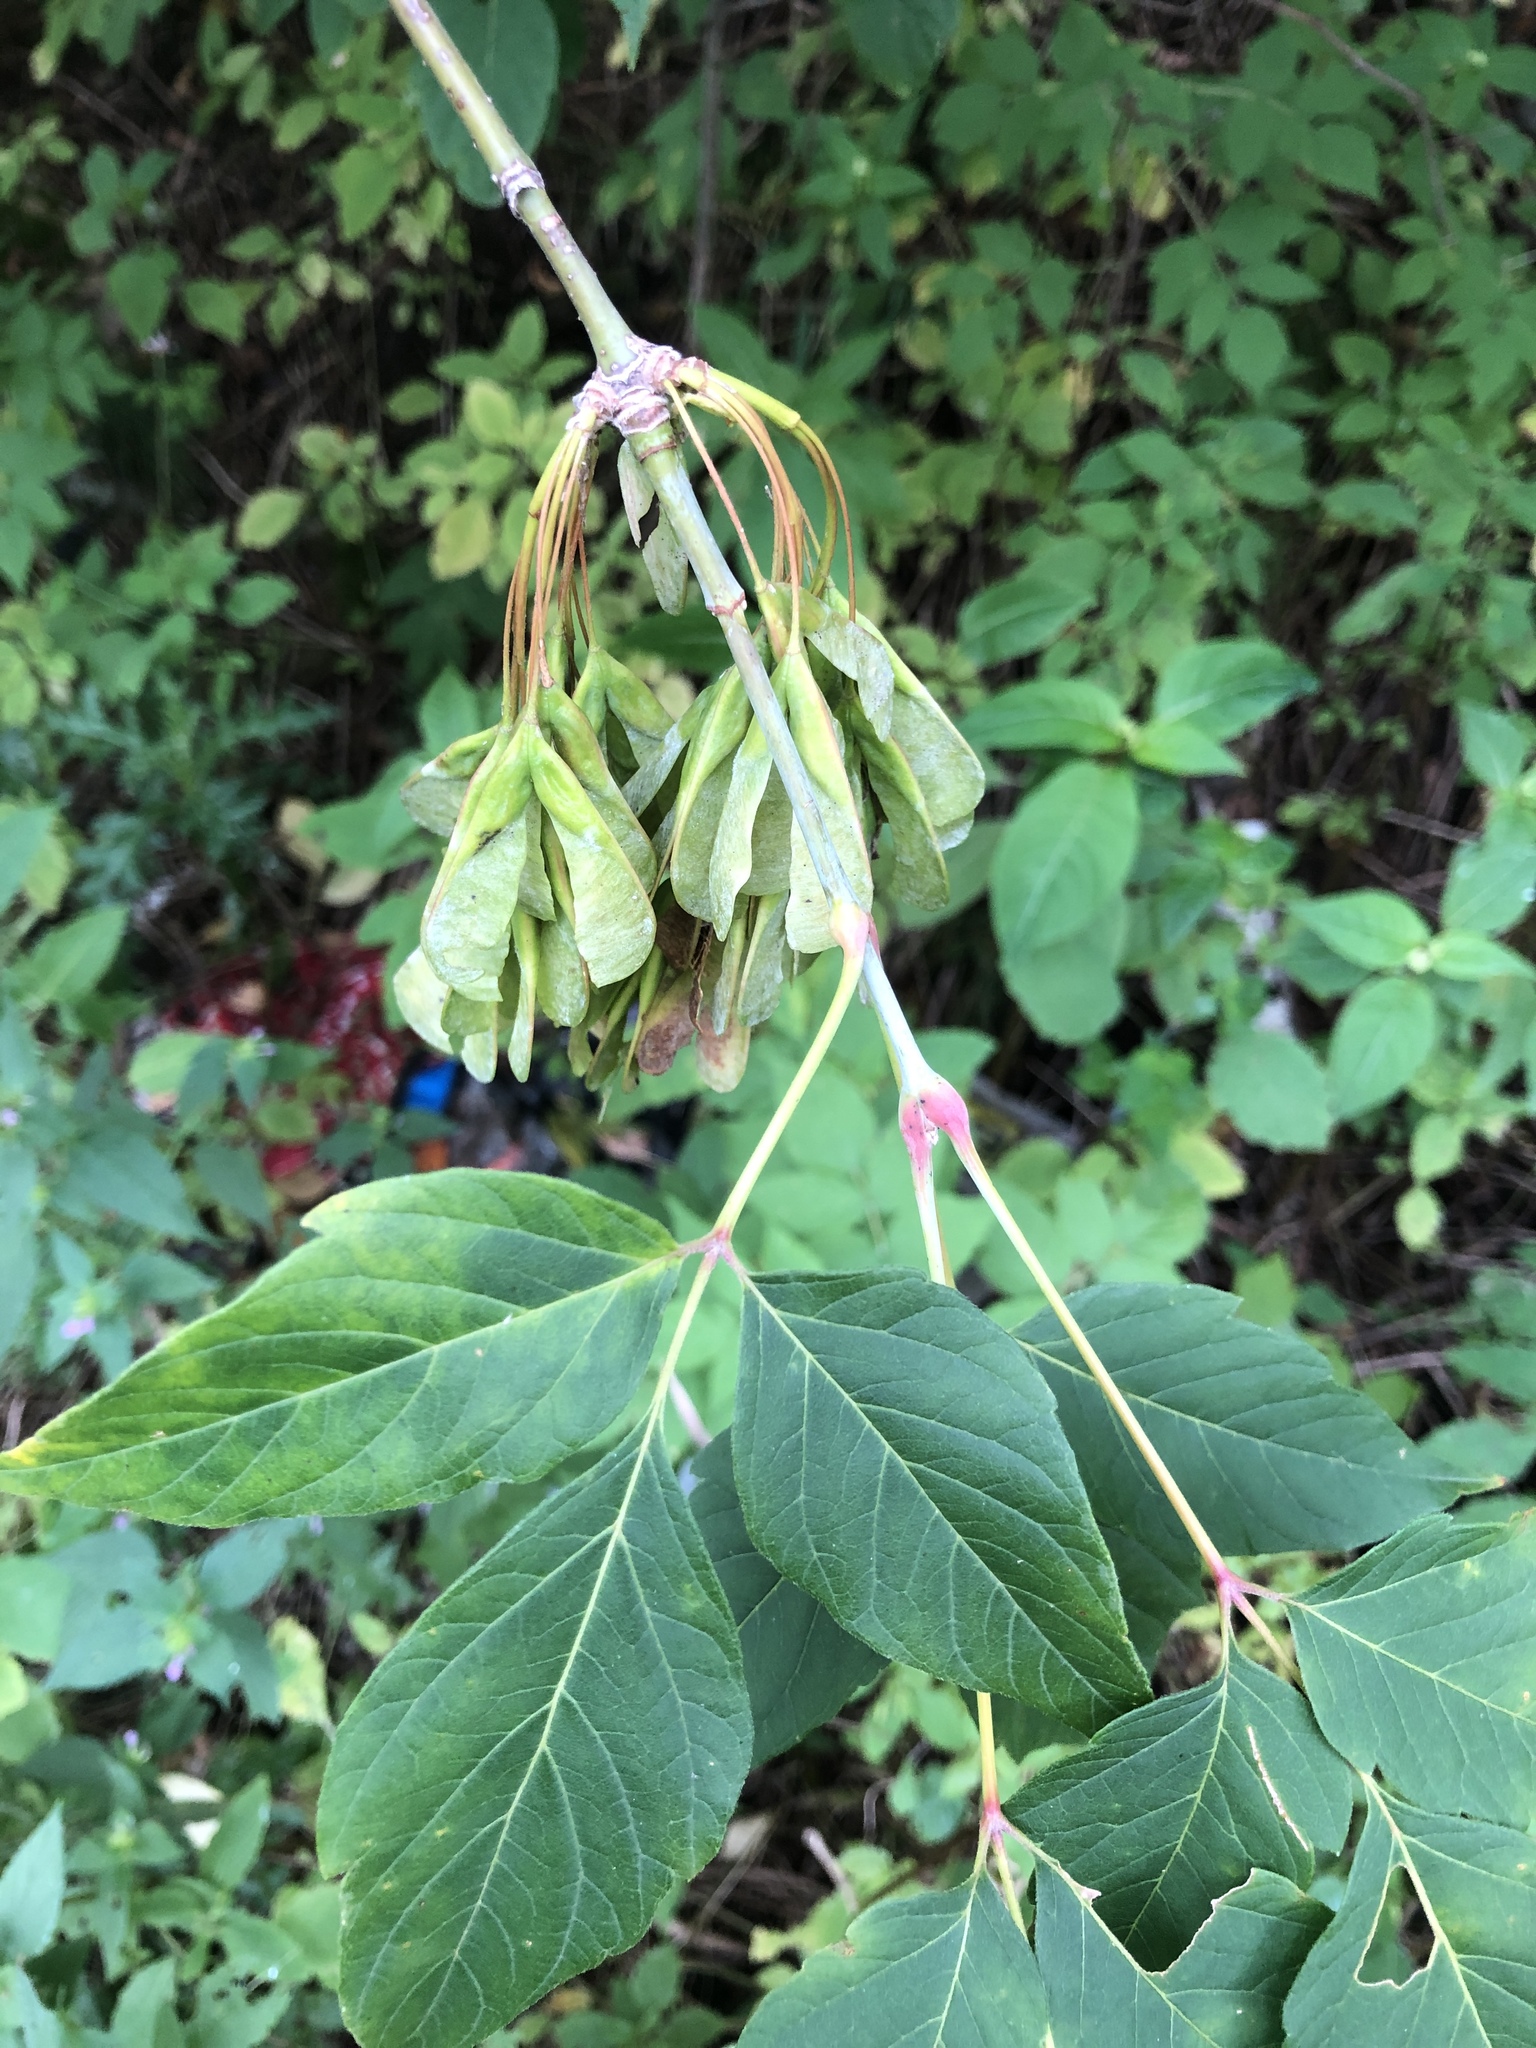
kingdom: Plantae
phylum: Tracheophyta
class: Magnoliopsida
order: Sapindales
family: Sapindaceae
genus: Acer
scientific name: Acer negundo
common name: Ashleaf maple
